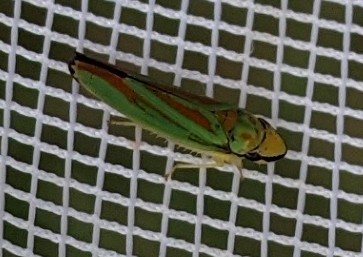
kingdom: Animalia
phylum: Arthropoda
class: Insecta
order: Hemiptera
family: Cicadellidae
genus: Graphocephala
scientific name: Graphocephala fennahi
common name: Rhododendron leafhopper
